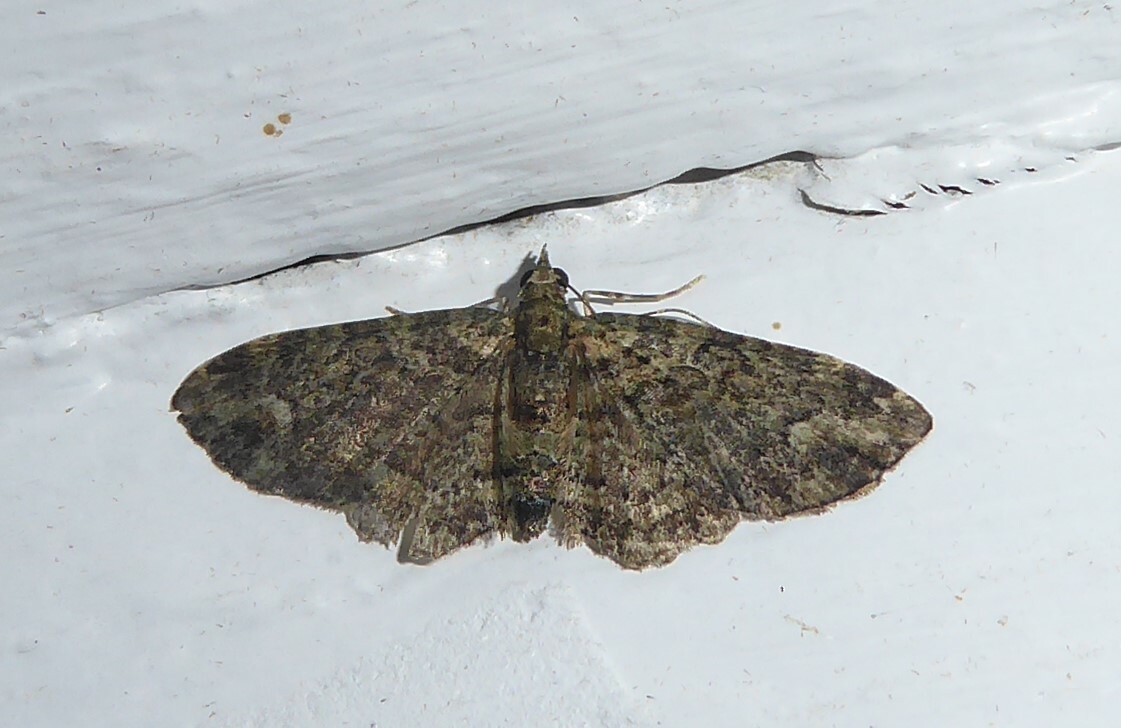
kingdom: Animalia
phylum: Arthropoda
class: Insecta
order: Lepidoptera
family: Geometridae
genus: Pasiphilodes
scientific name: Pasiphilodes testulata
